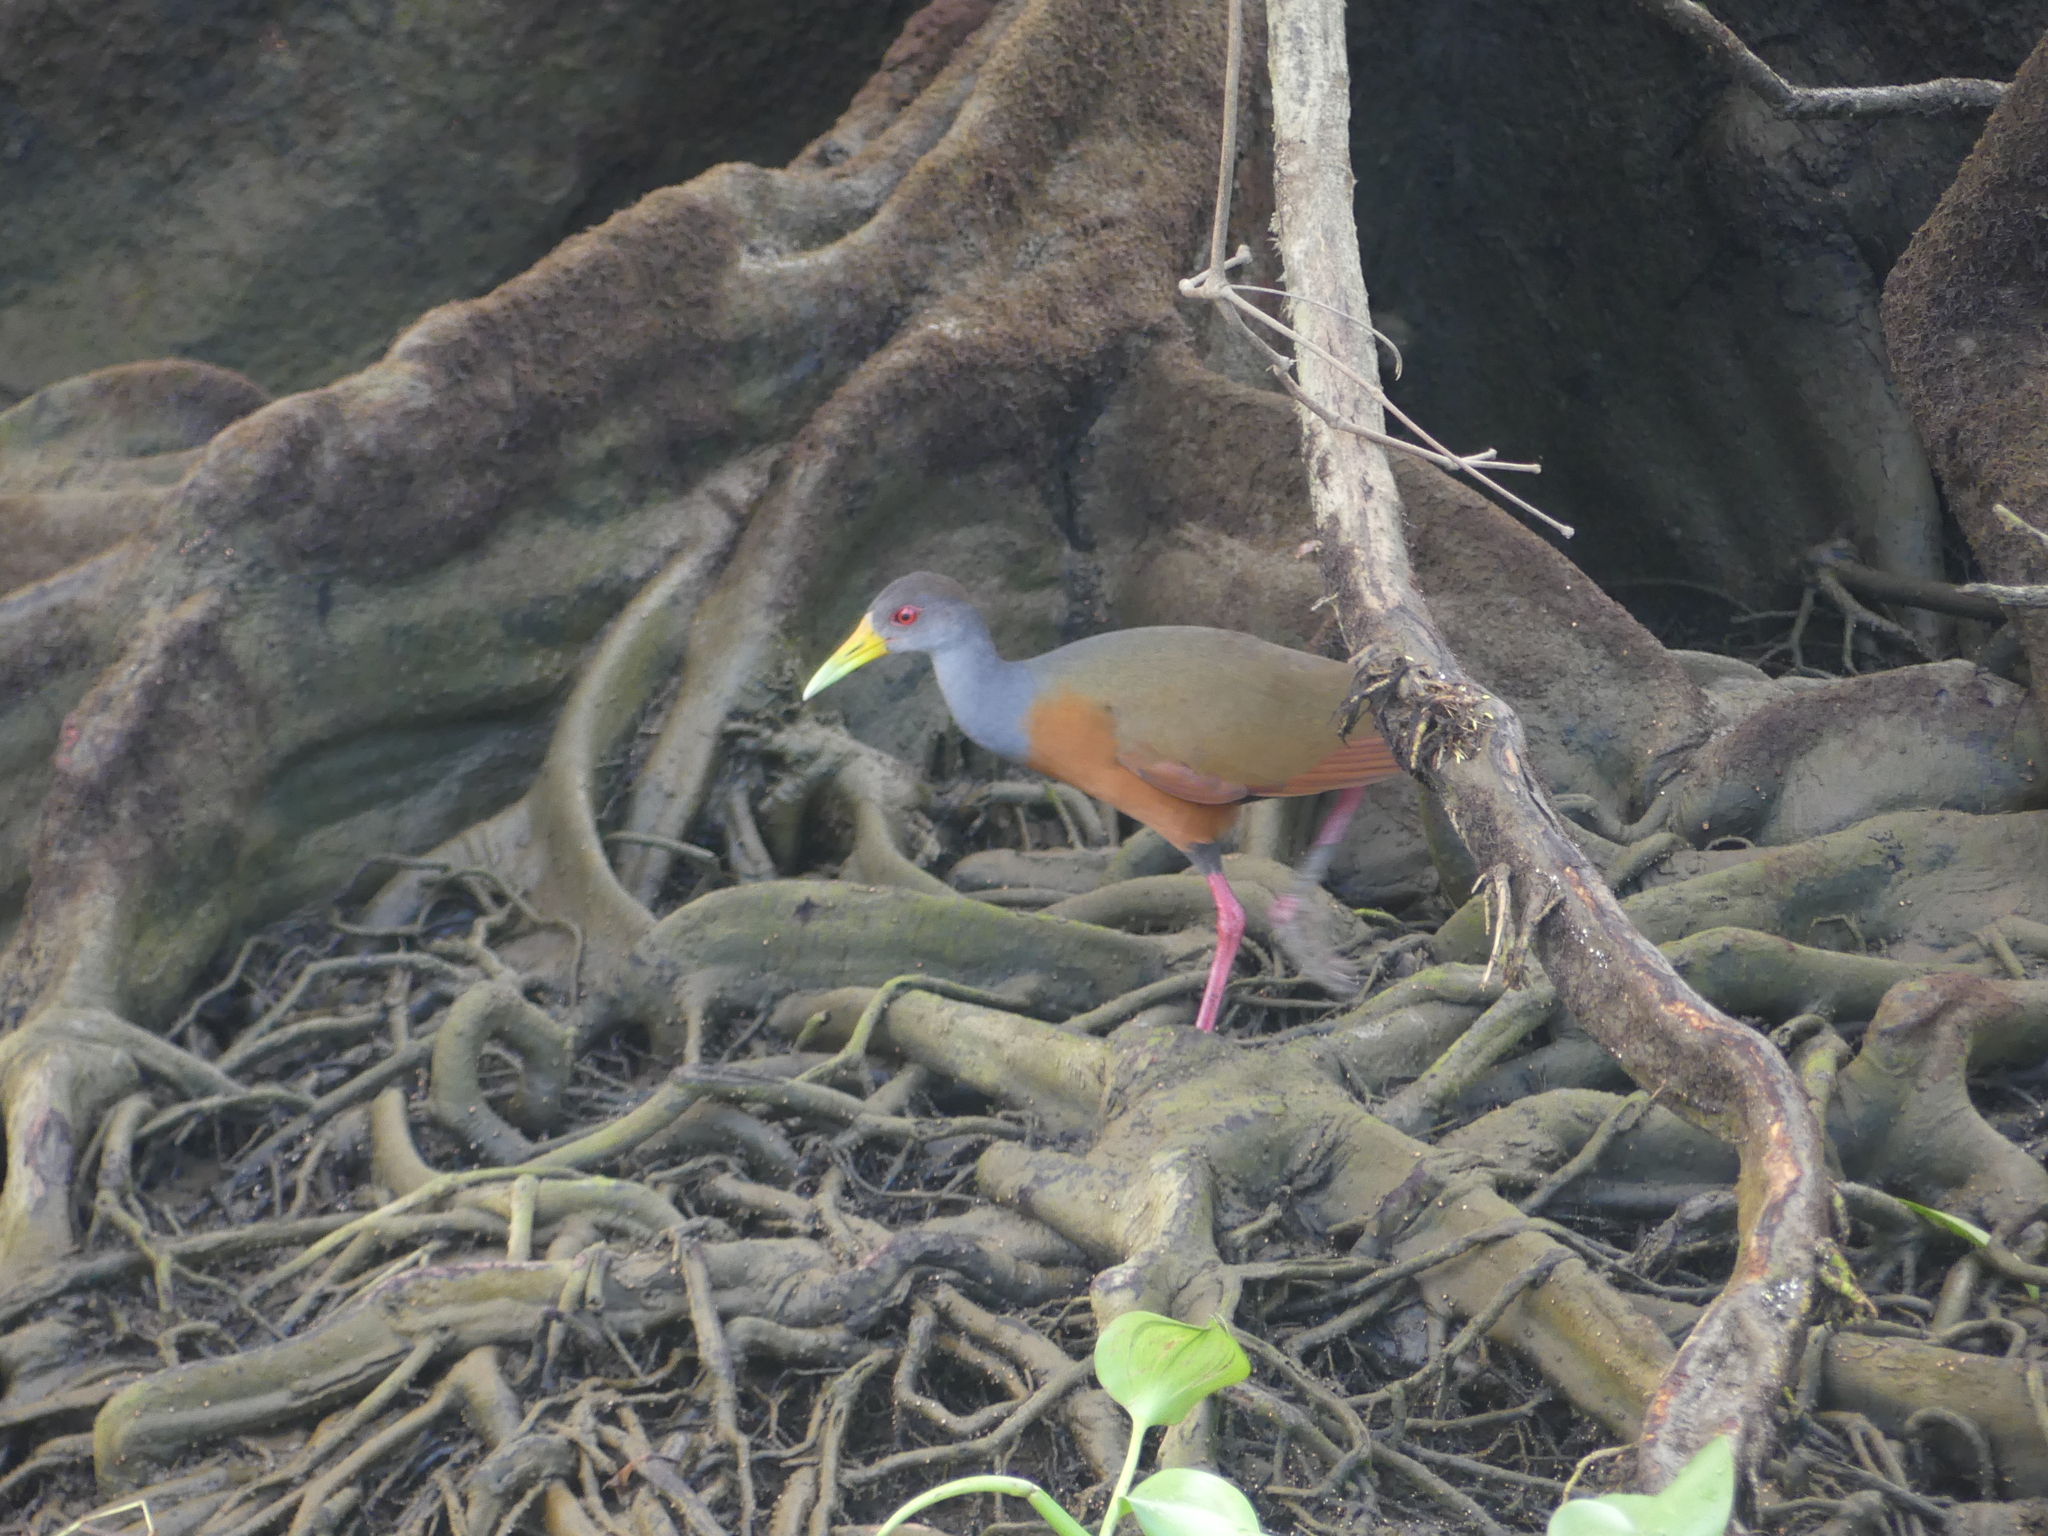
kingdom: Animalia
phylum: Chordata
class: Aves
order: Gruiformes
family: Rallidae
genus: Aramides
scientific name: Aramides cajanea
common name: Gray-necked wood-rail
